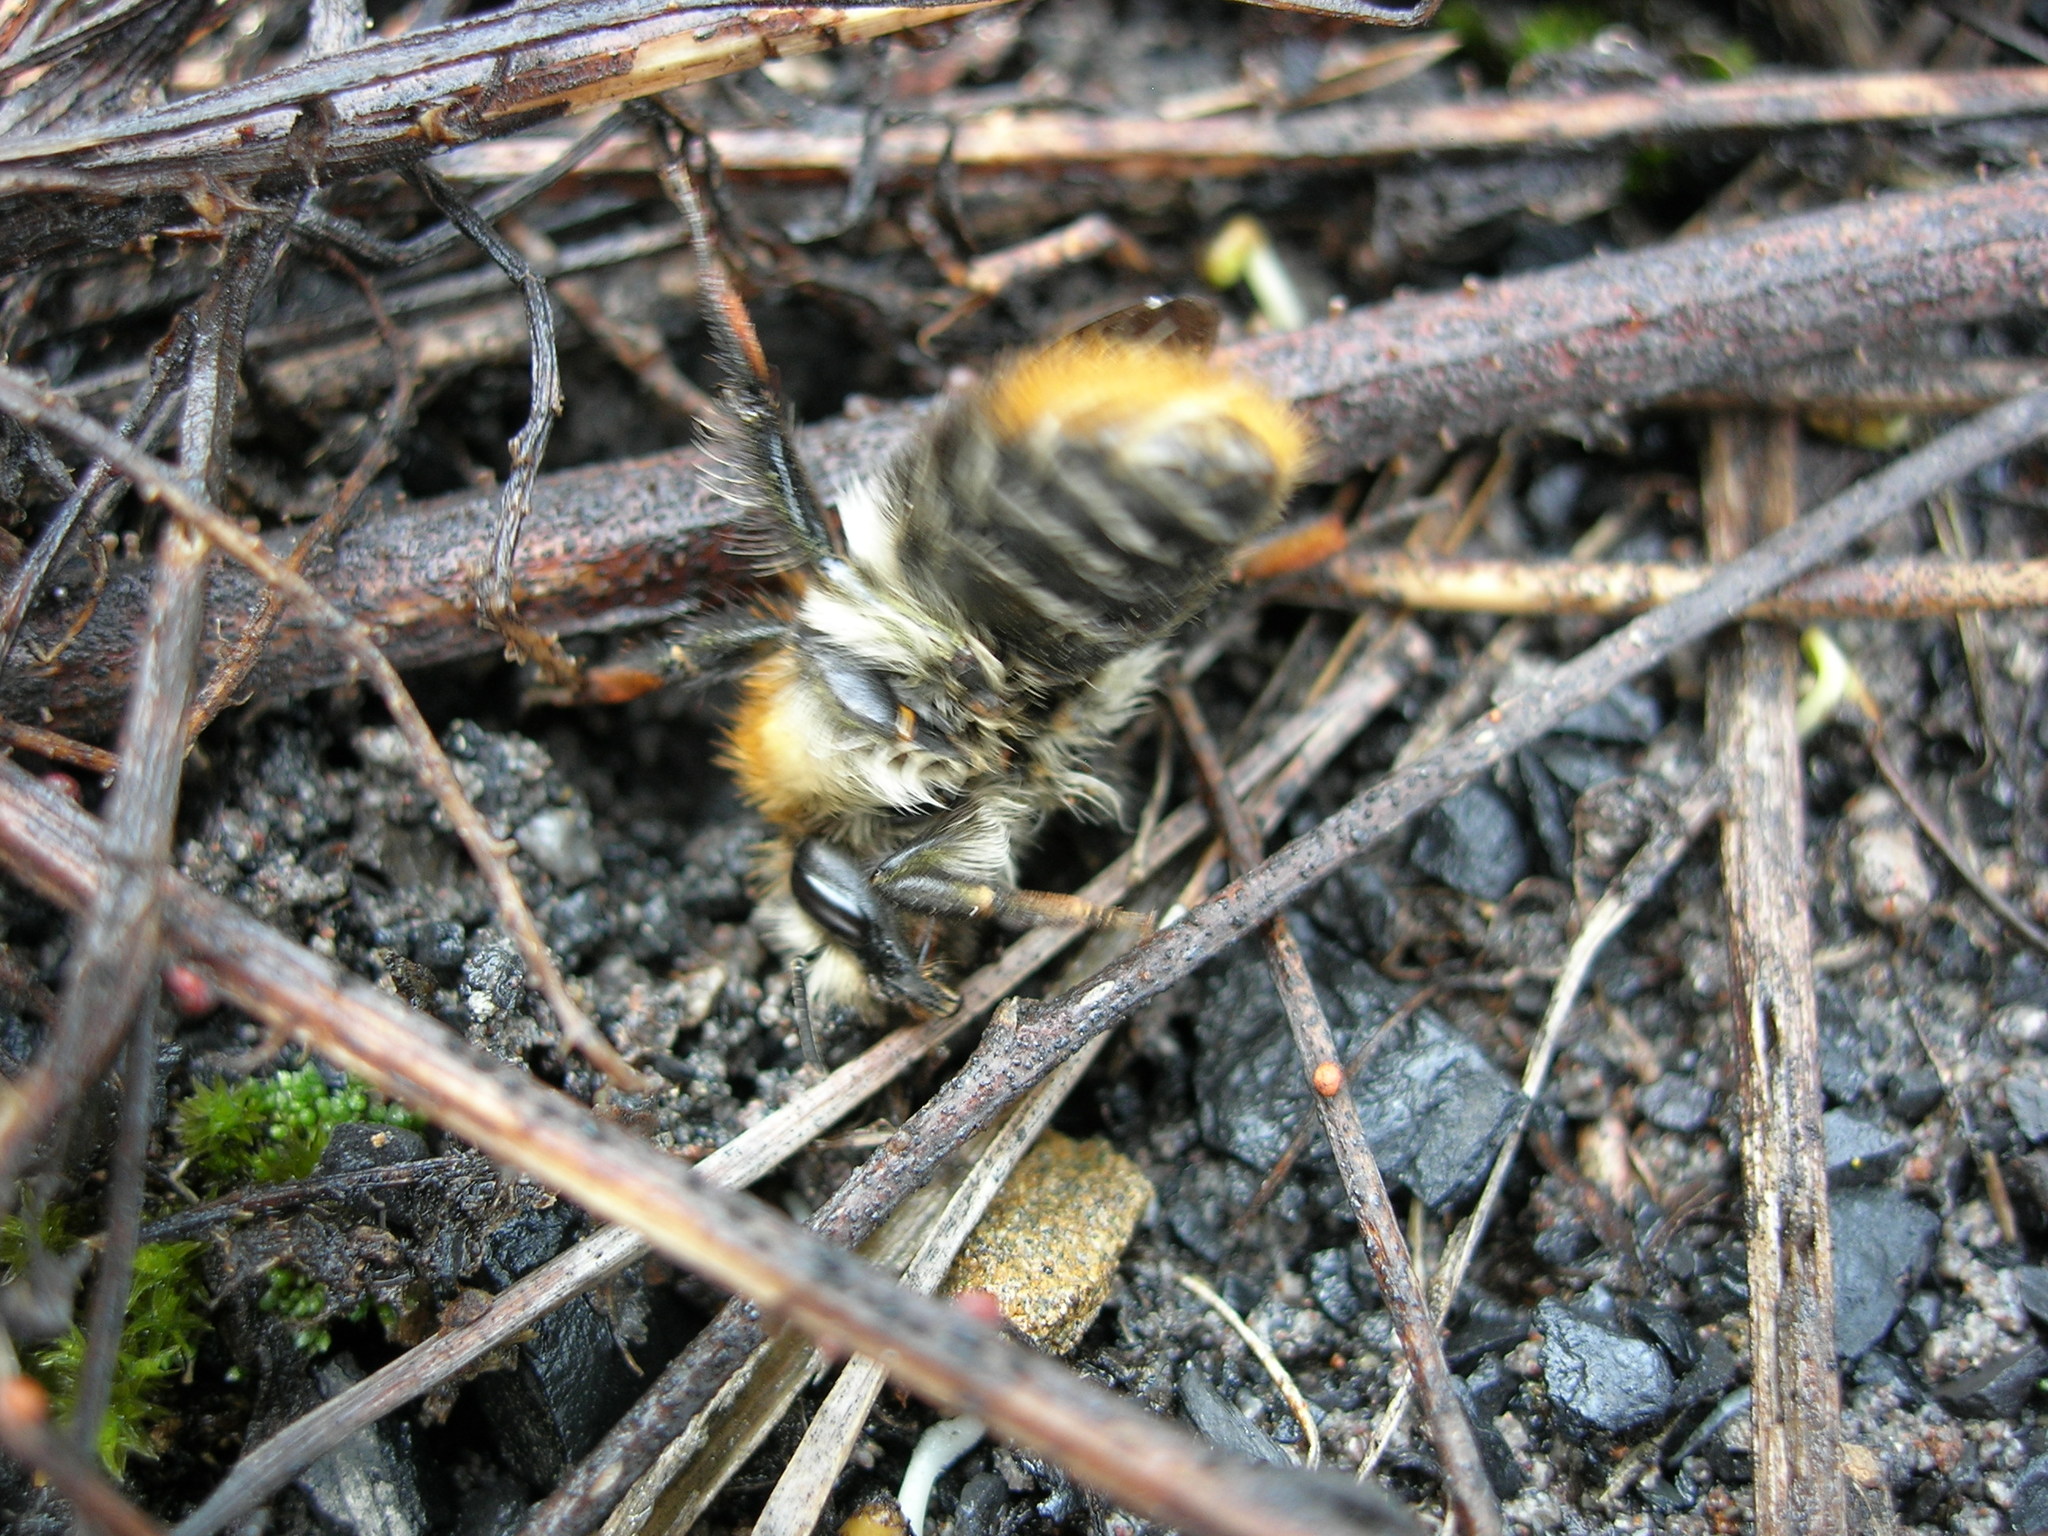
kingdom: Animalia
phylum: Arthropoda
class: Insecta
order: Hymenoptera
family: Apidae
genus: Bombus
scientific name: Bombus pascuorum
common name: Common carder bee
